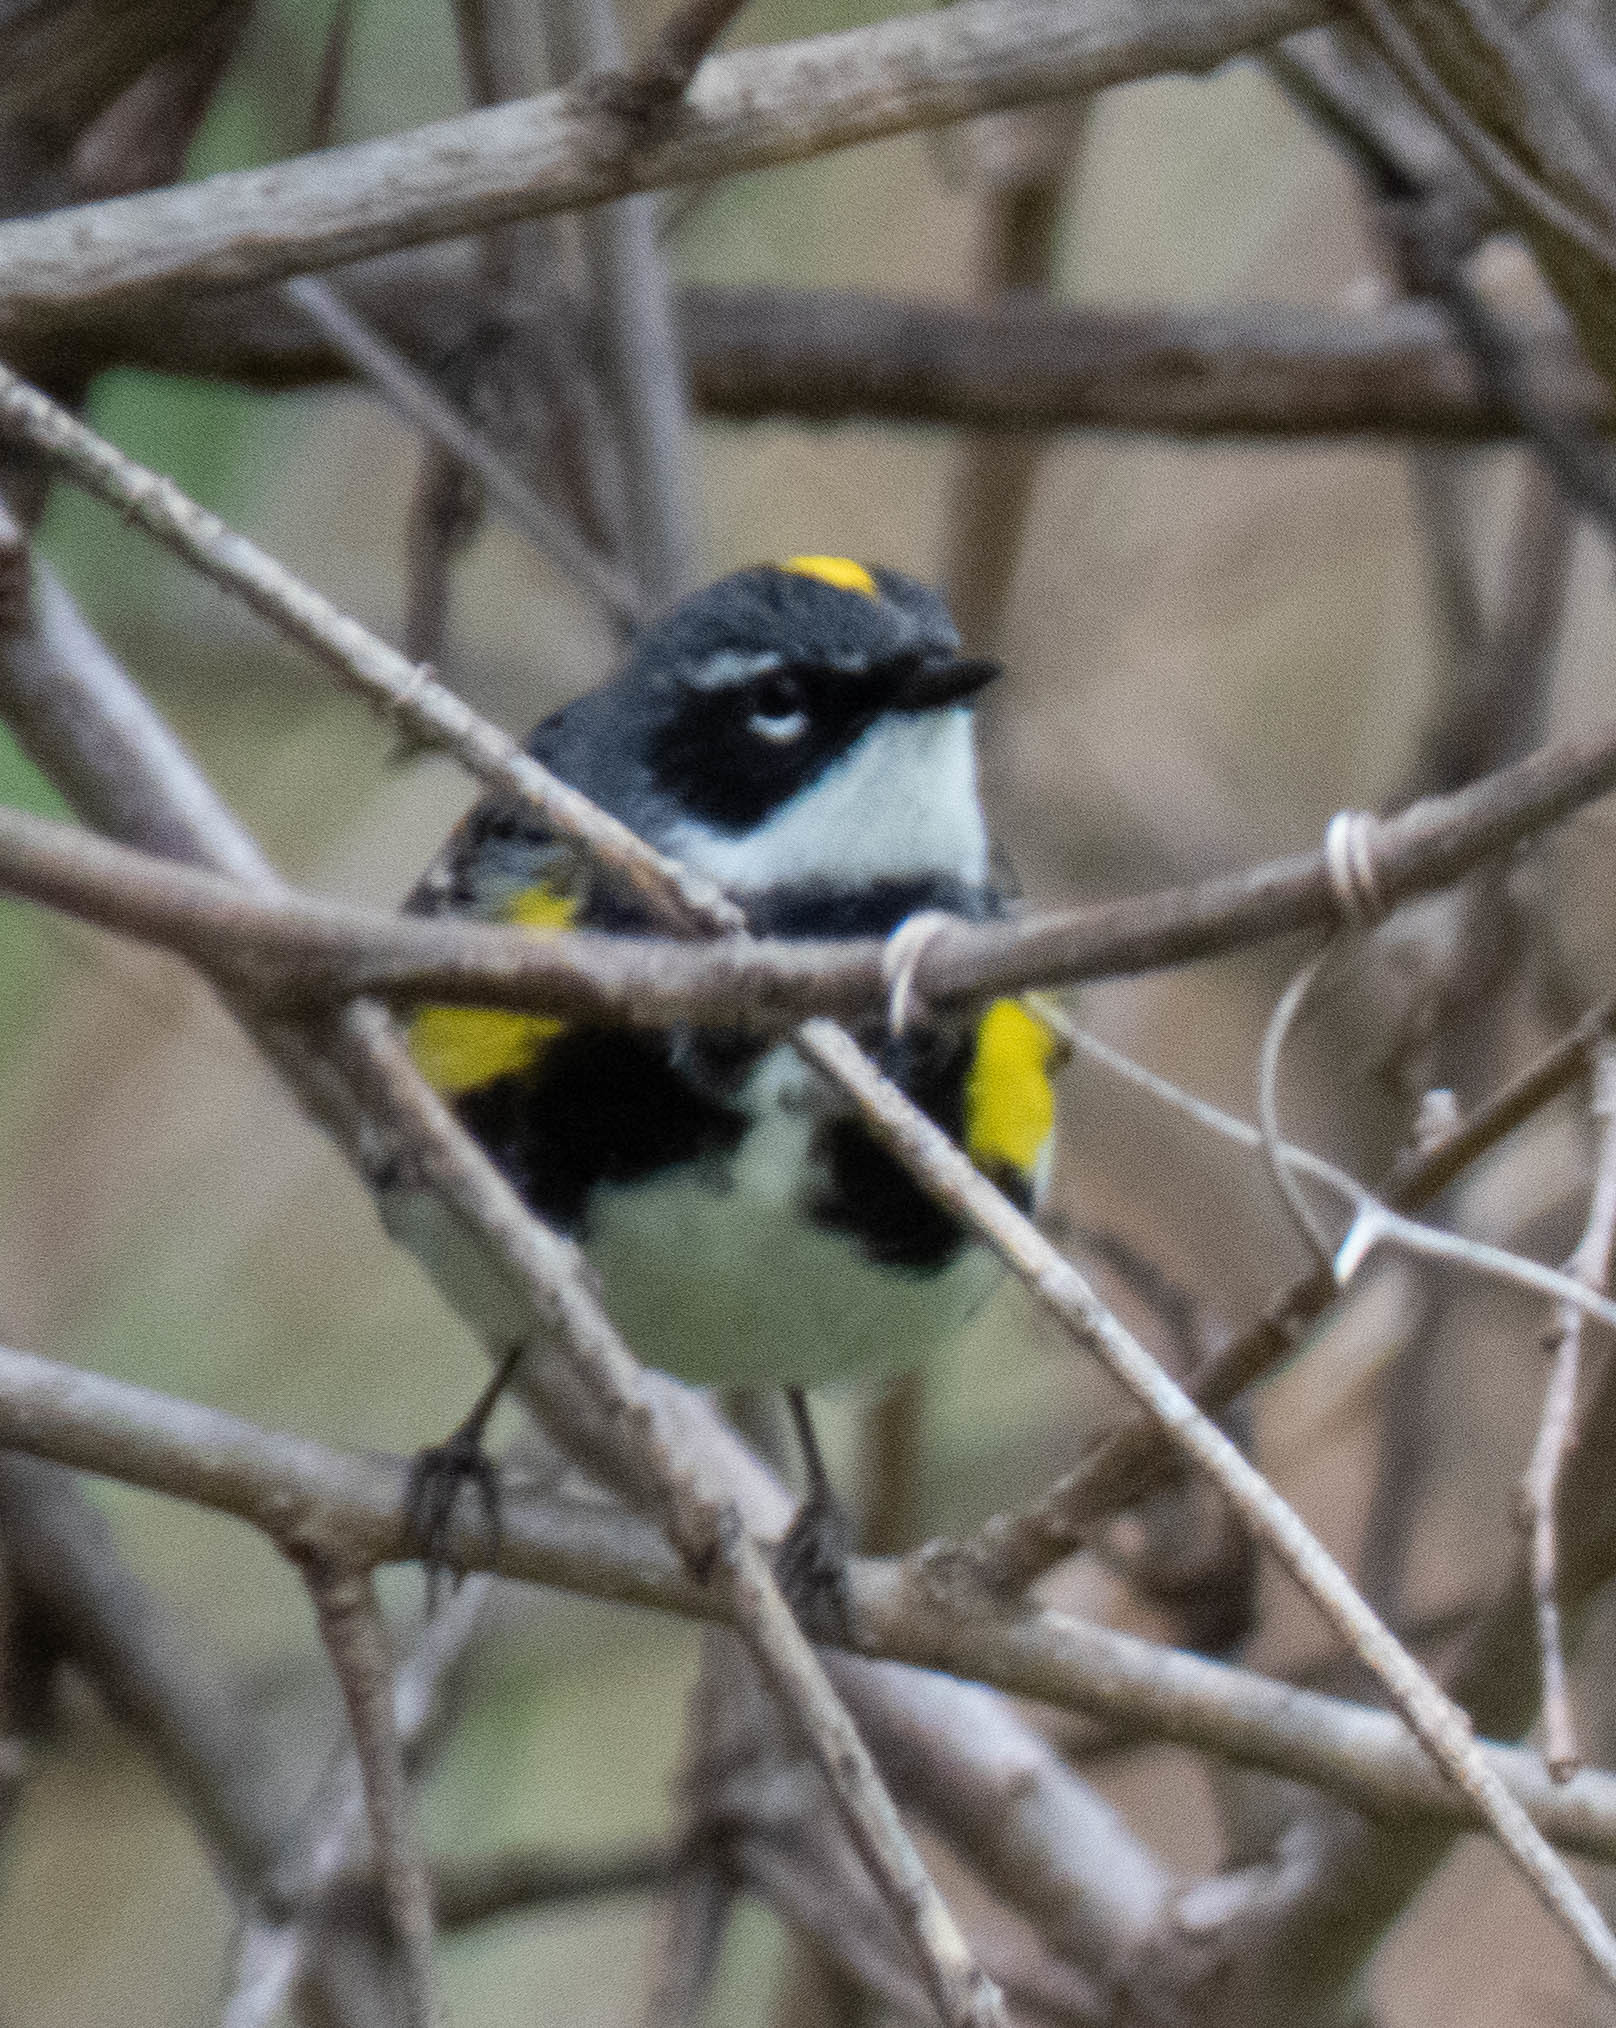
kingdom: Animalia
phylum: Chordata
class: Aves
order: Passeriformes
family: Parulidae
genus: Setophaga
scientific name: Setophaga coronata
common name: Myrtle warbler
